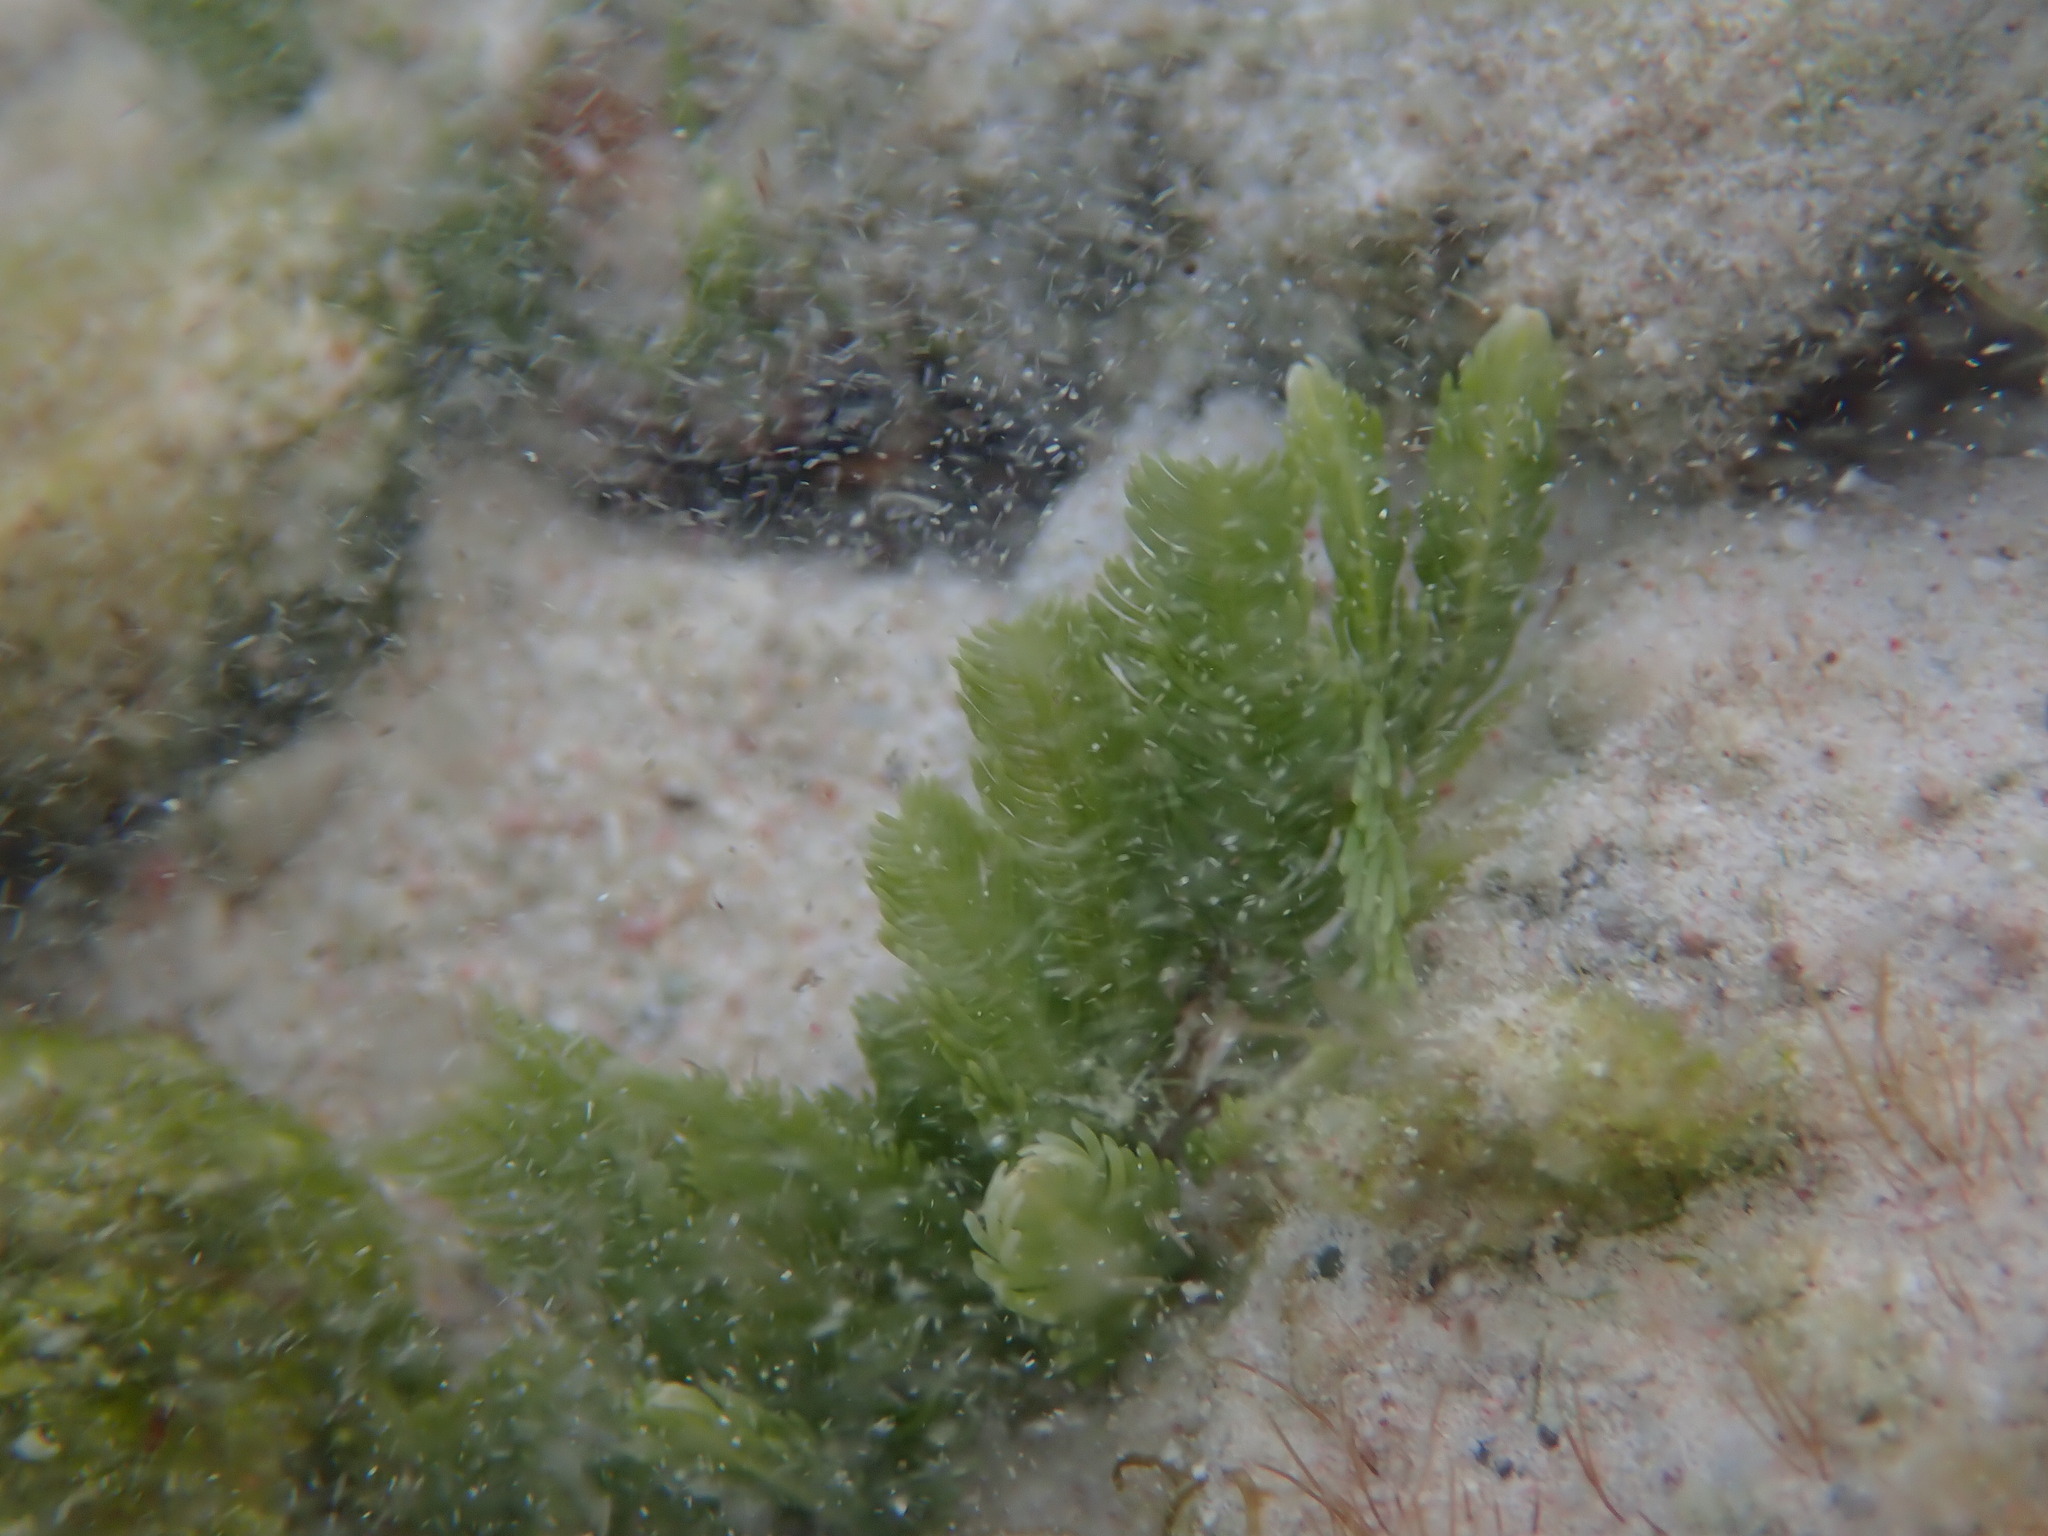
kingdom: Plantae
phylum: Chlorophyta
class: Ulvophyceae
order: Bryopsidales
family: Caulerpaceae
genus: Caulerpa
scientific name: Caulerpa sertularioides
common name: Green feather algae
